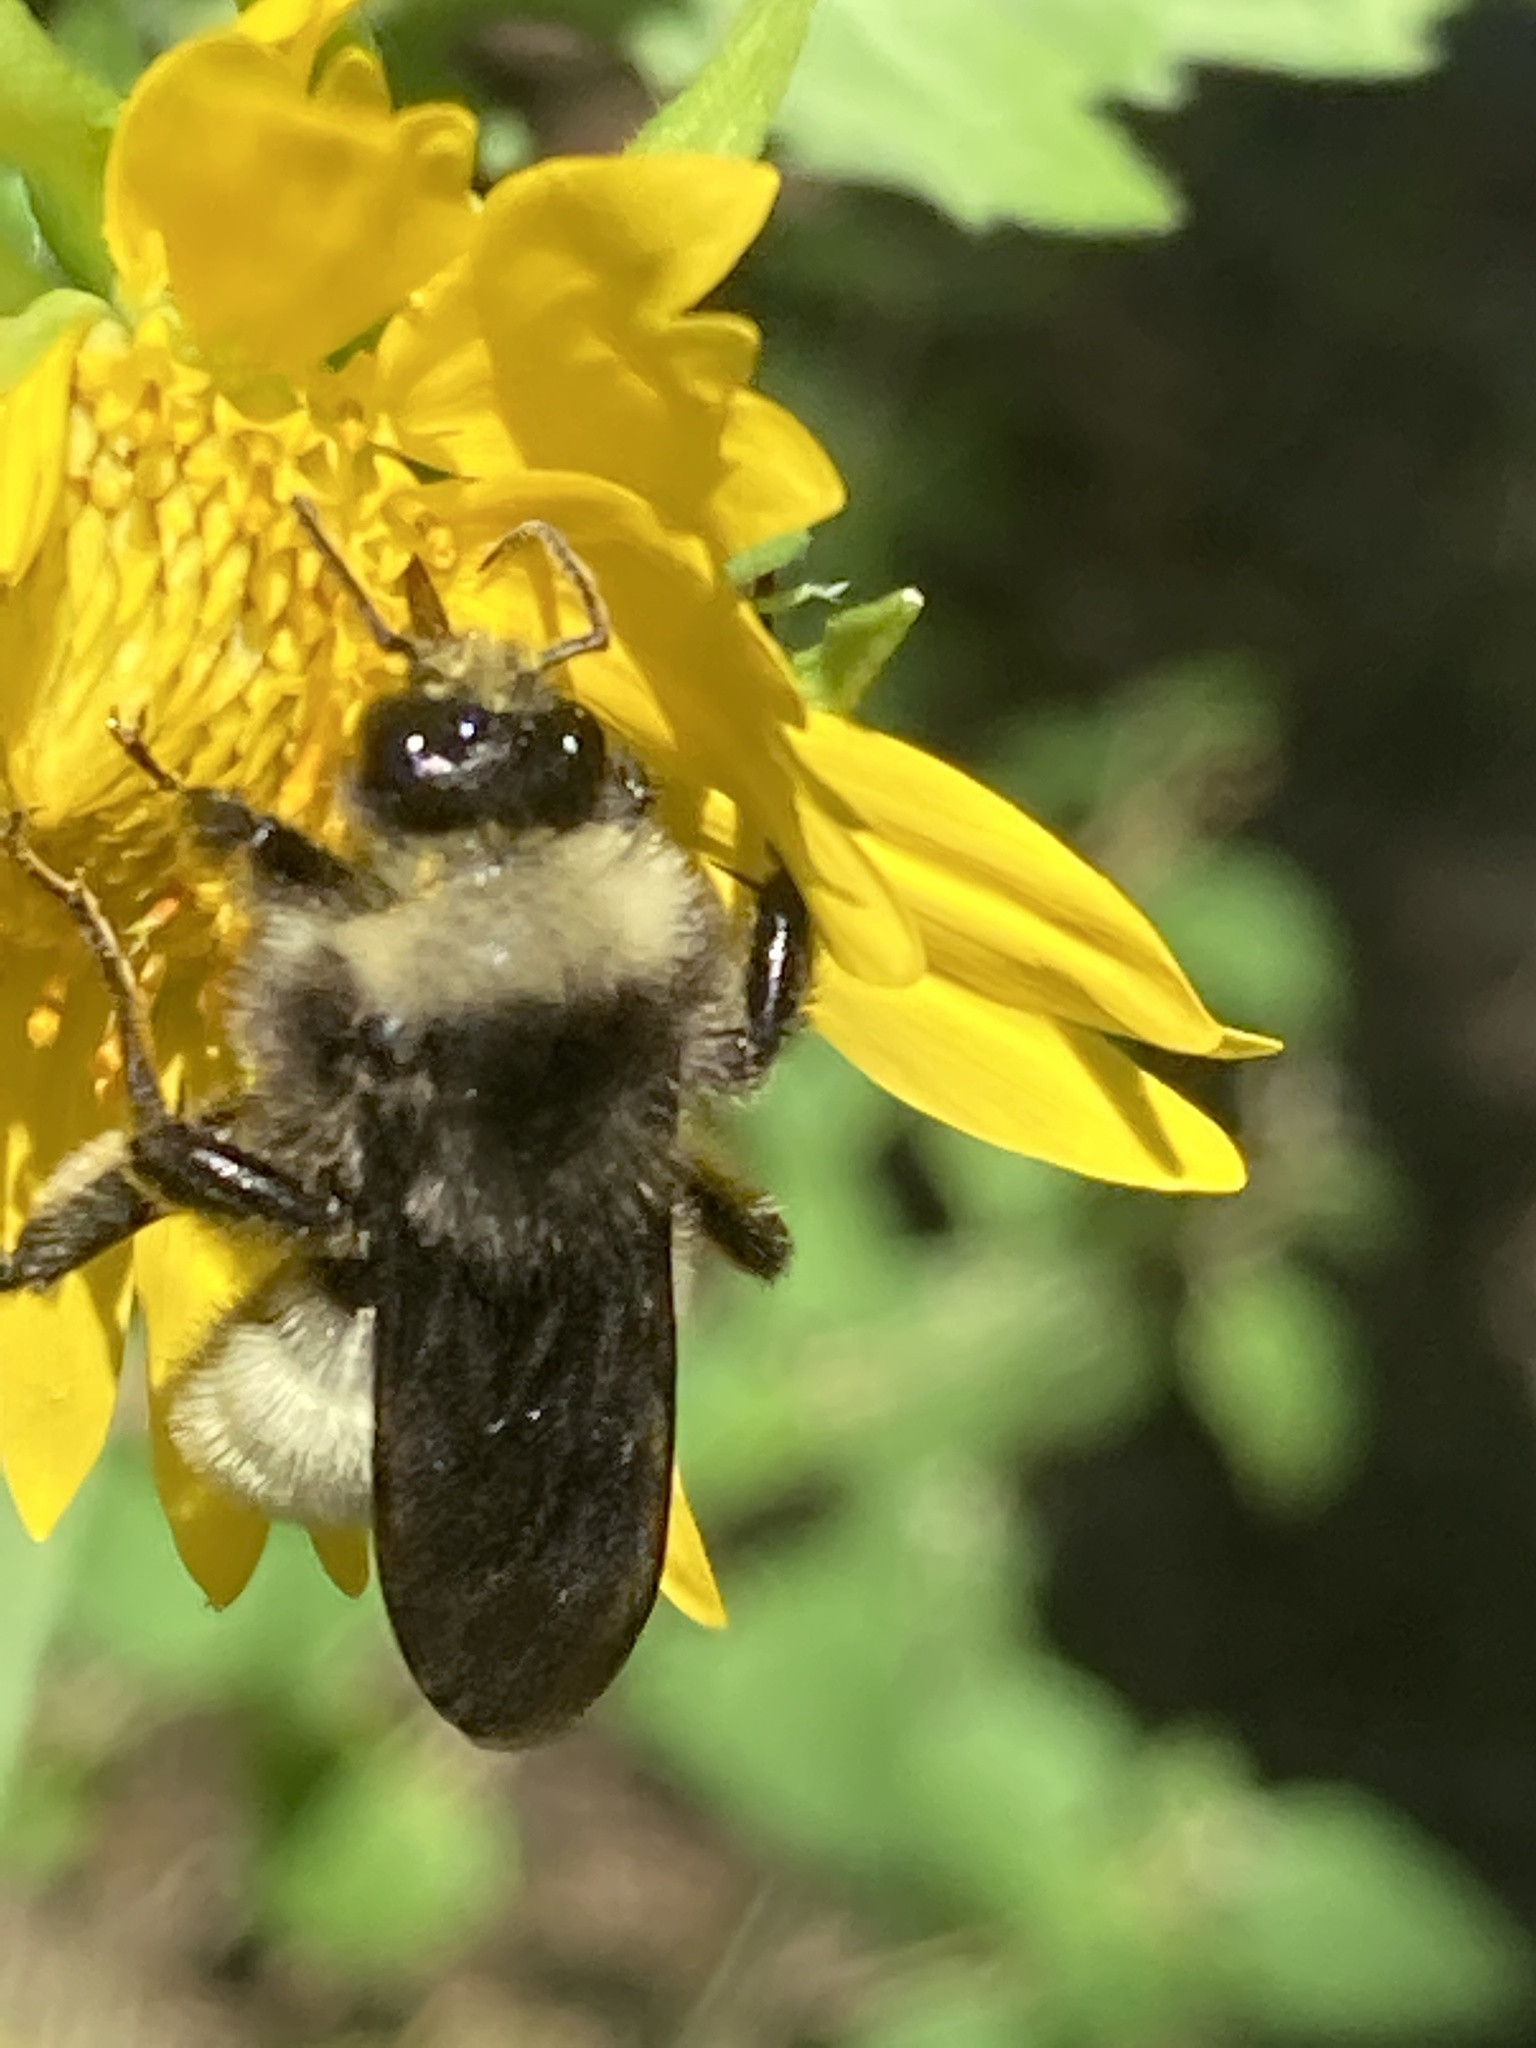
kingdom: Animalia
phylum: Arthropoda
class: Insecta
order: Hymenoptera
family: Apidae
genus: Bombus
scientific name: Bombus pensylvanicus
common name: Bumble bee
